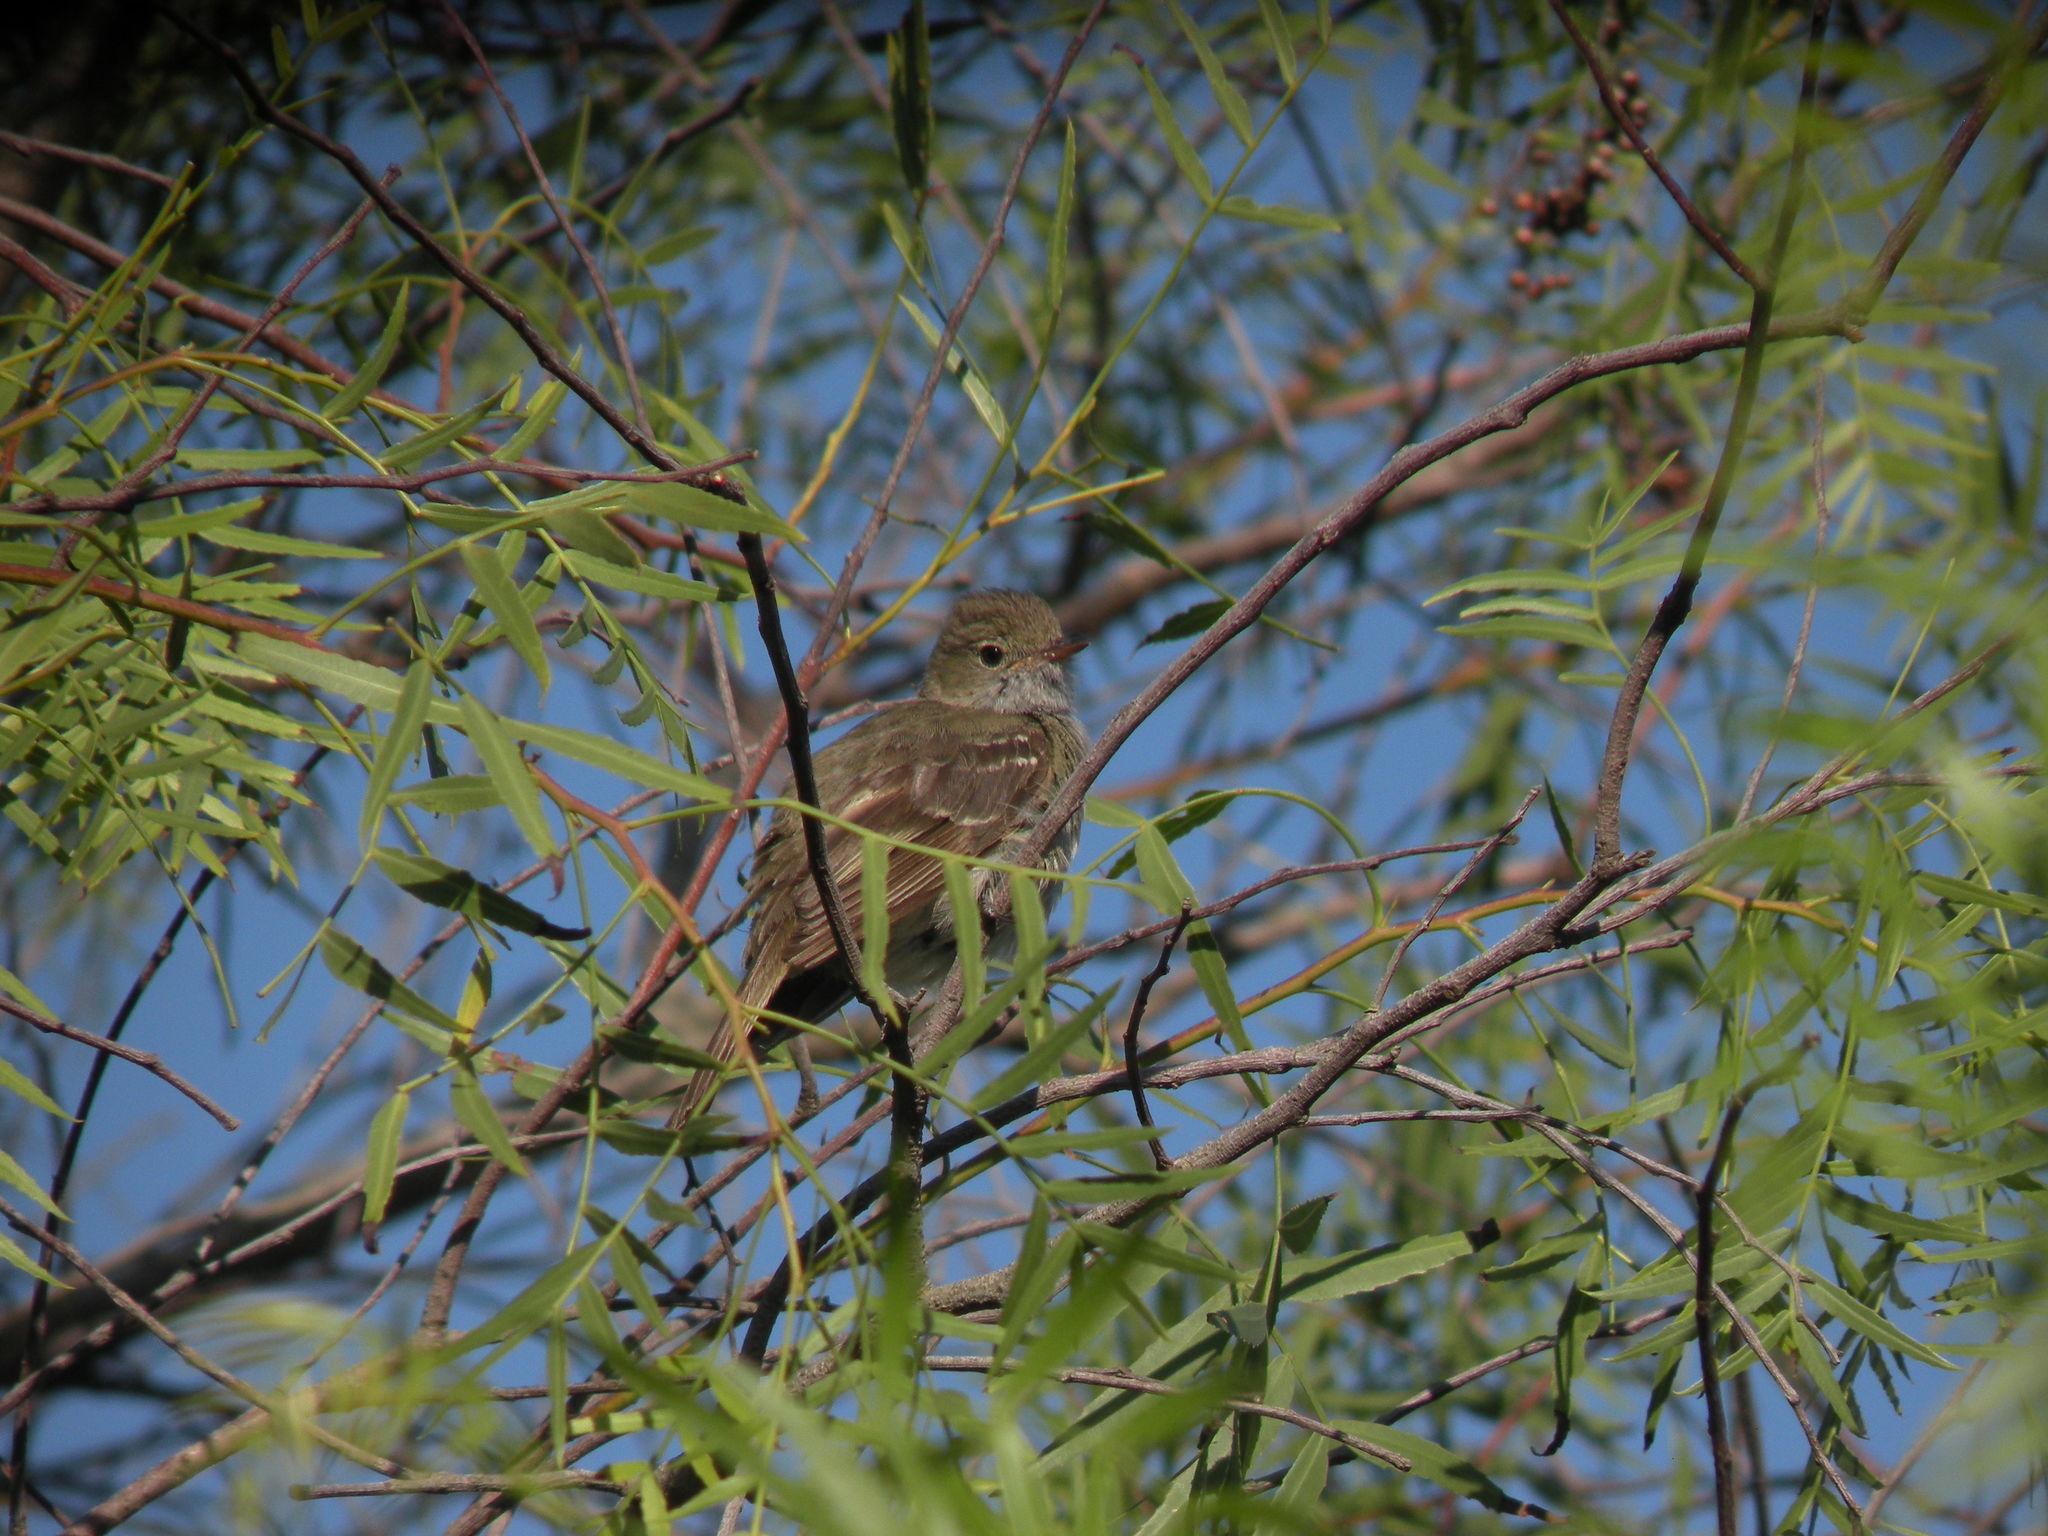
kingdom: Animalia
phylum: Chordata
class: Aves
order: Passeriformes
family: Tyrannidae
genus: Elaenia
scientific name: Elaenia parvirostris
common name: Small-billed elaenia
